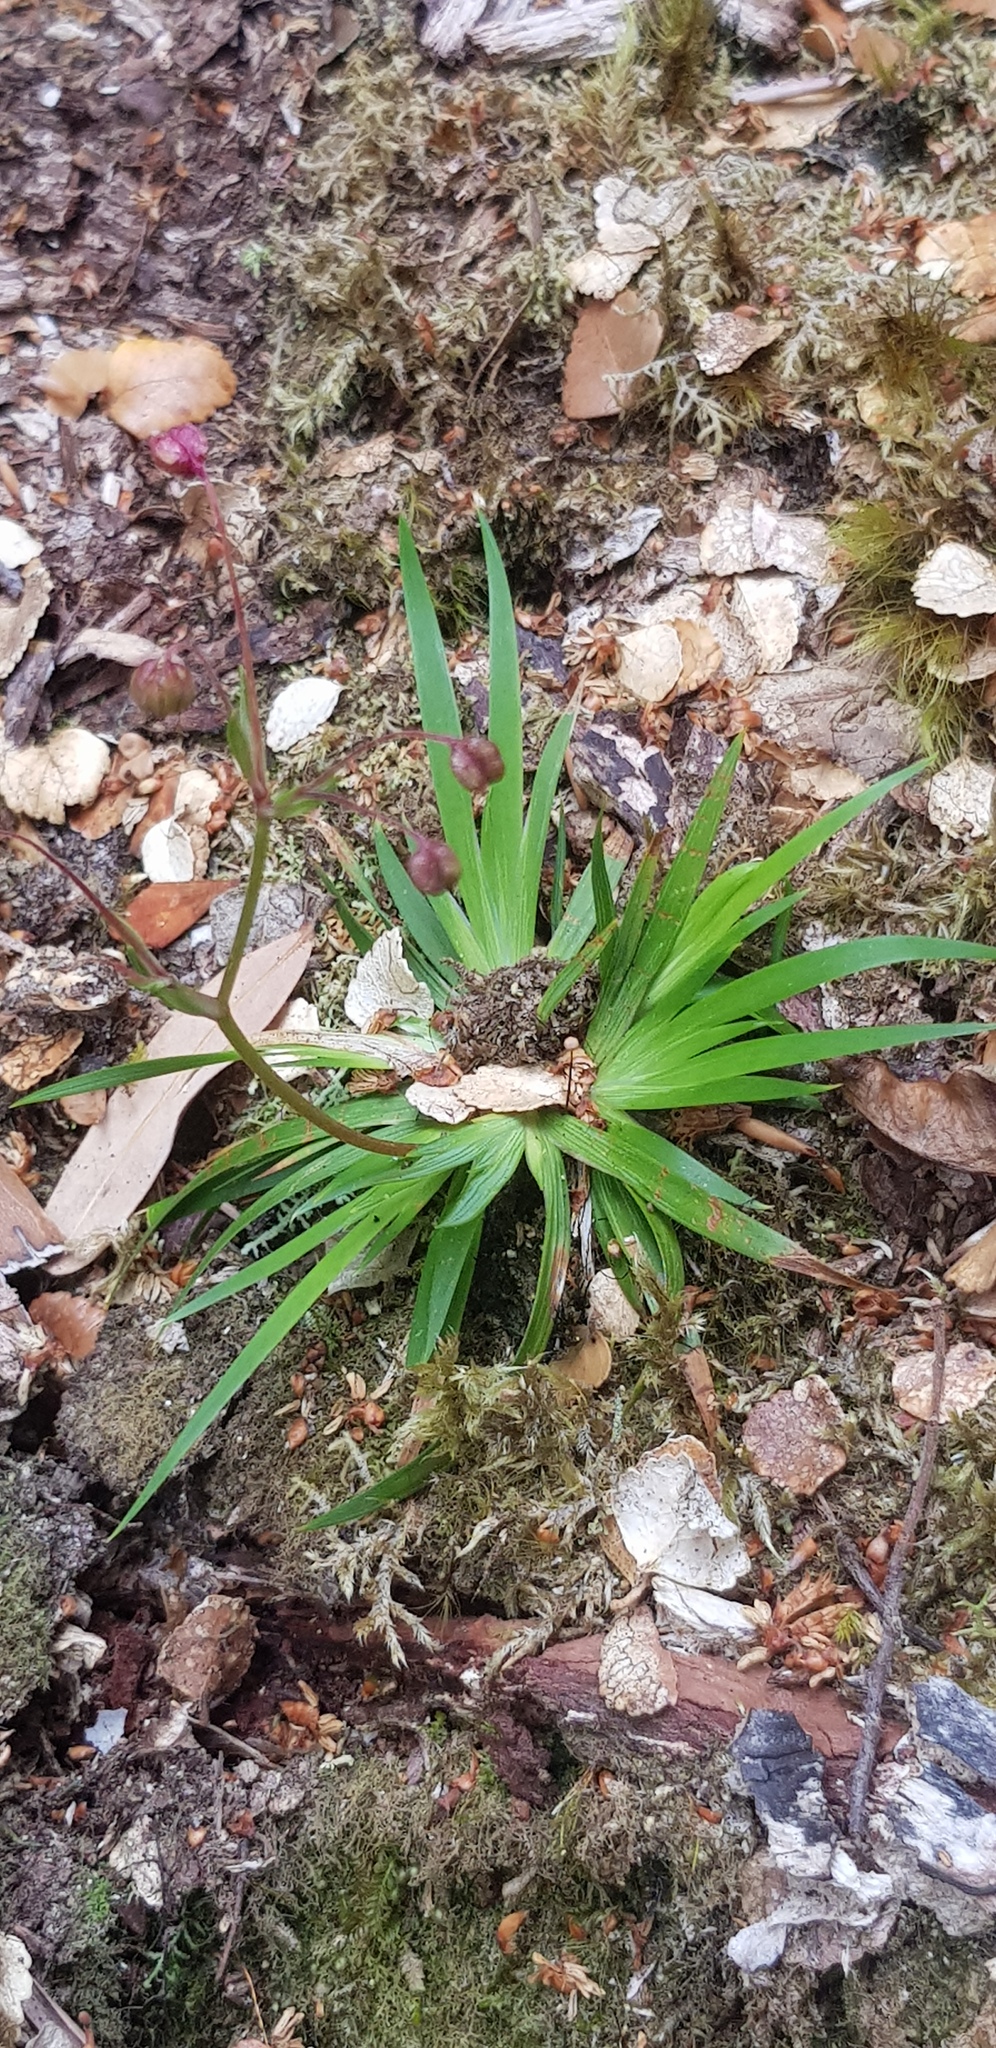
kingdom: Plantae
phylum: Tracheophyta
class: Liliopsida
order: Asparagales
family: Iridaceae
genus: Libertia
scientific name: Libertia pulchella
